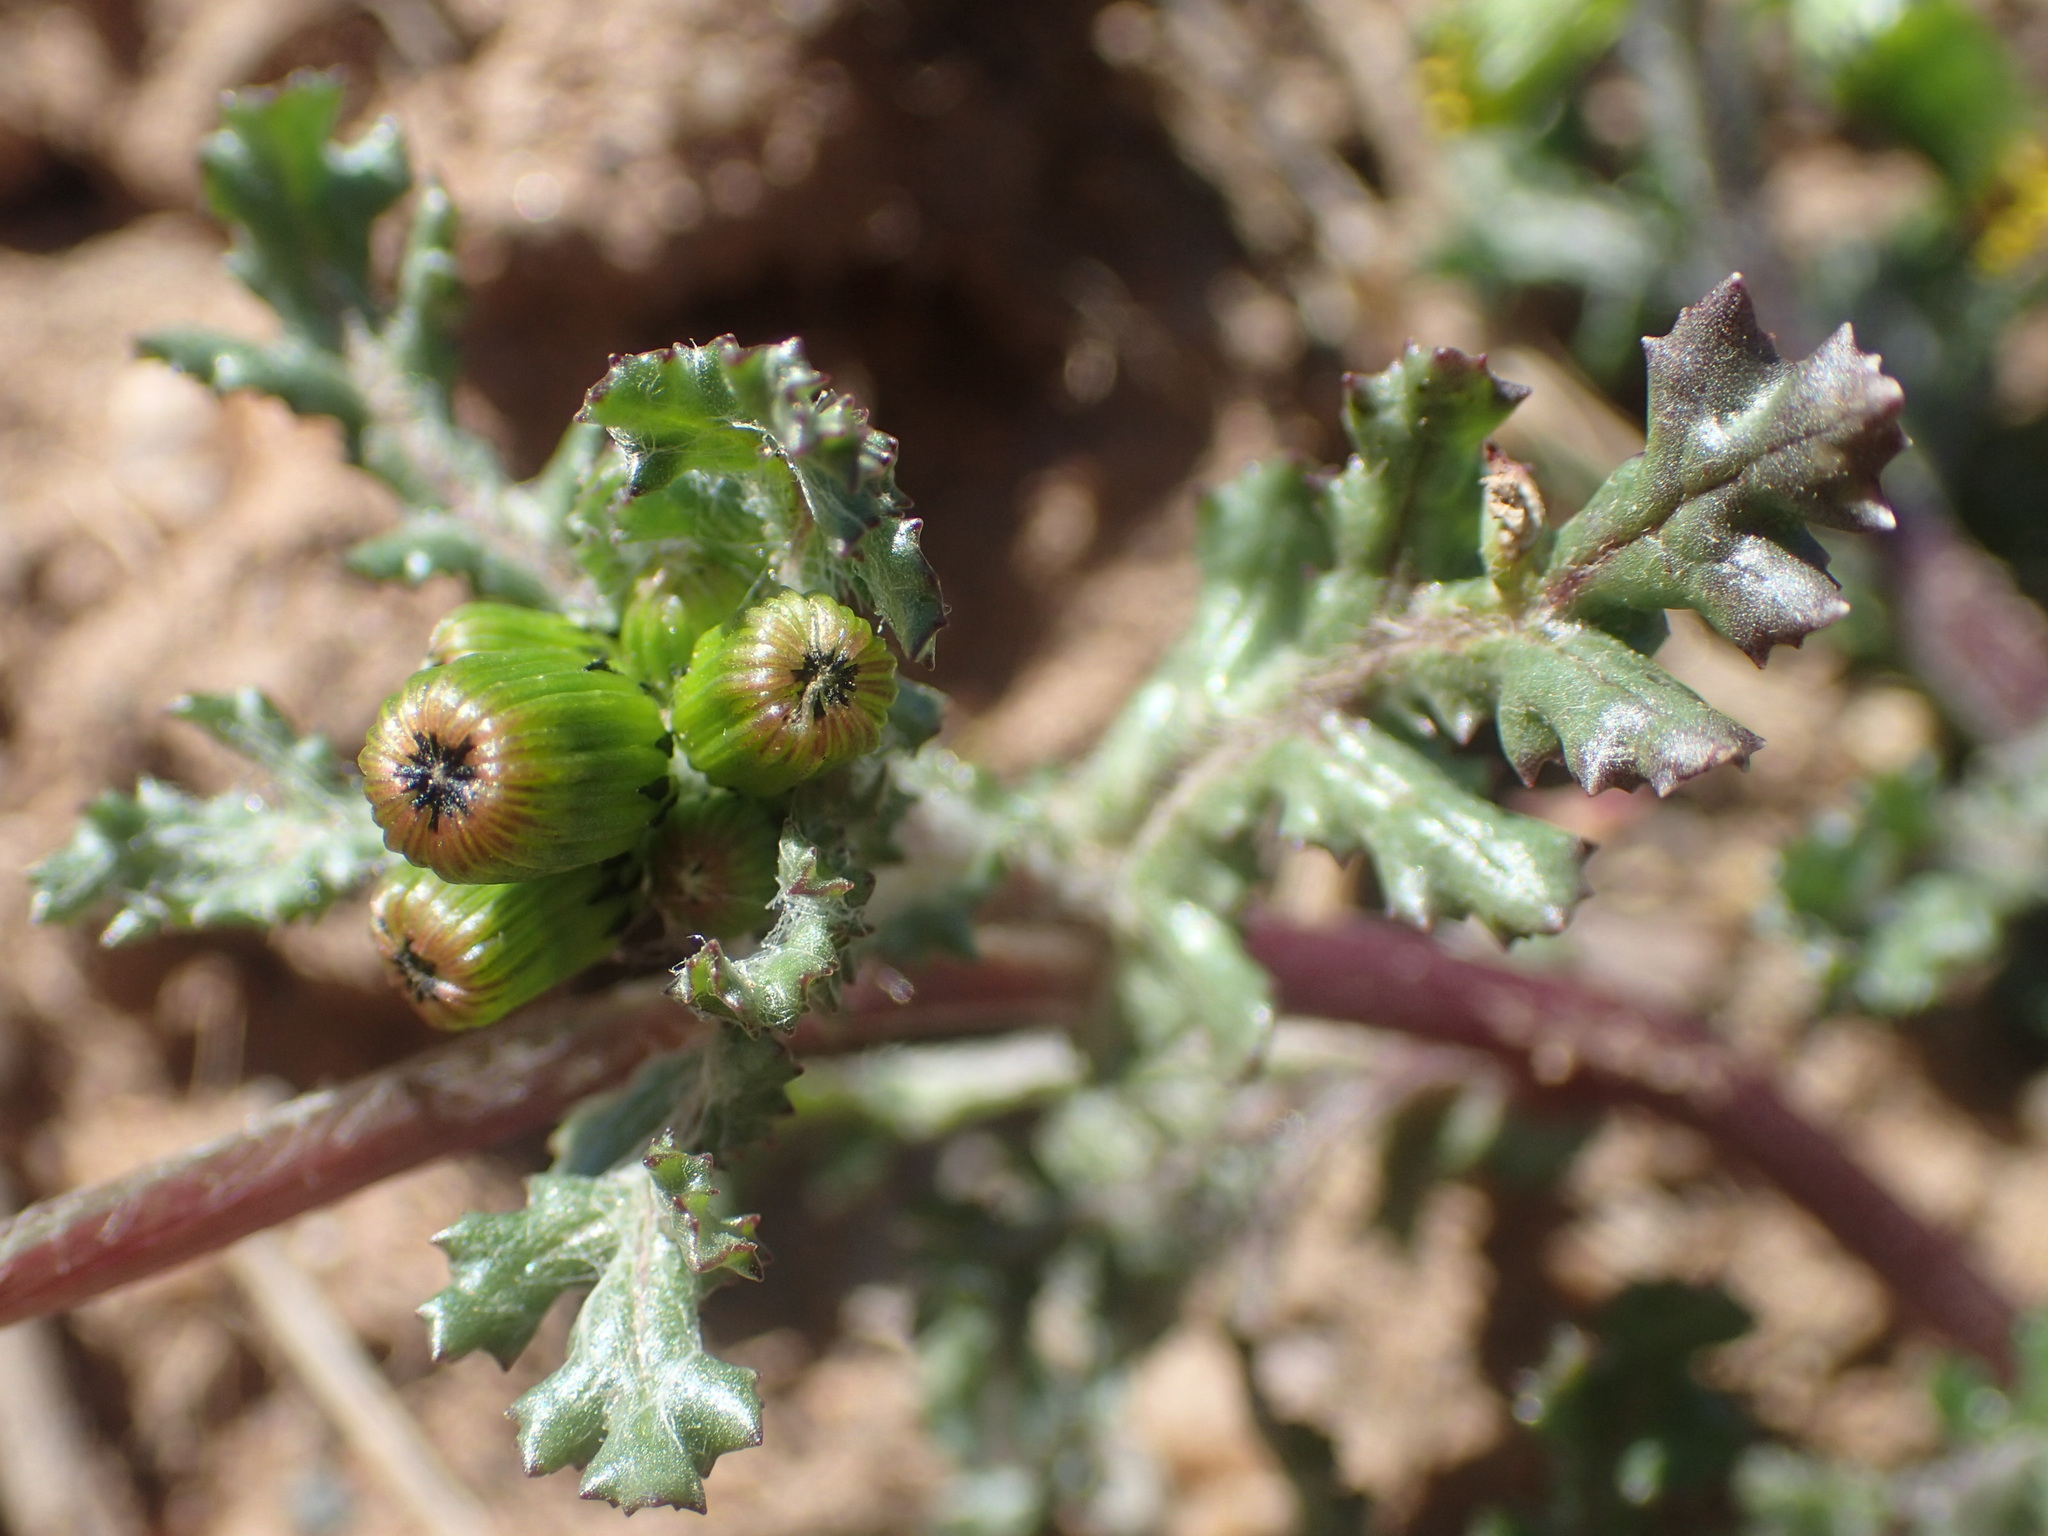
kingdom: Plantae
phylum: Tracheophyta
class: Magnoliopsida
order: Asterales
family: Asteraceae
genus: Senecio
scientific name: Senecio vulgaris
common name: Old-man-in-the-spring
